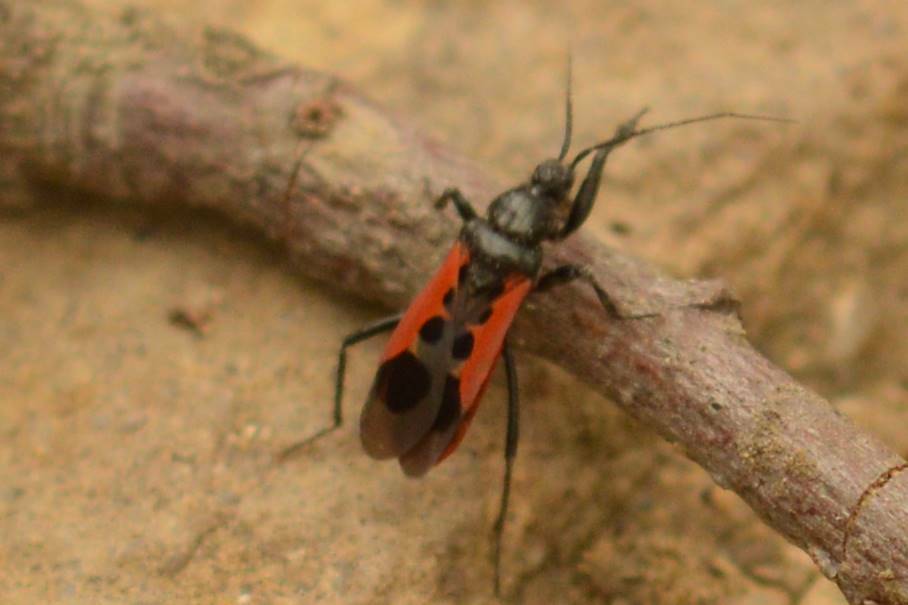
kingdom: Animalia
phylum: Arthropoda
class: Insecta
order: Hemiptera
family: Reduviidae
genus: Peirates
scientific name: Peirates stridulus
